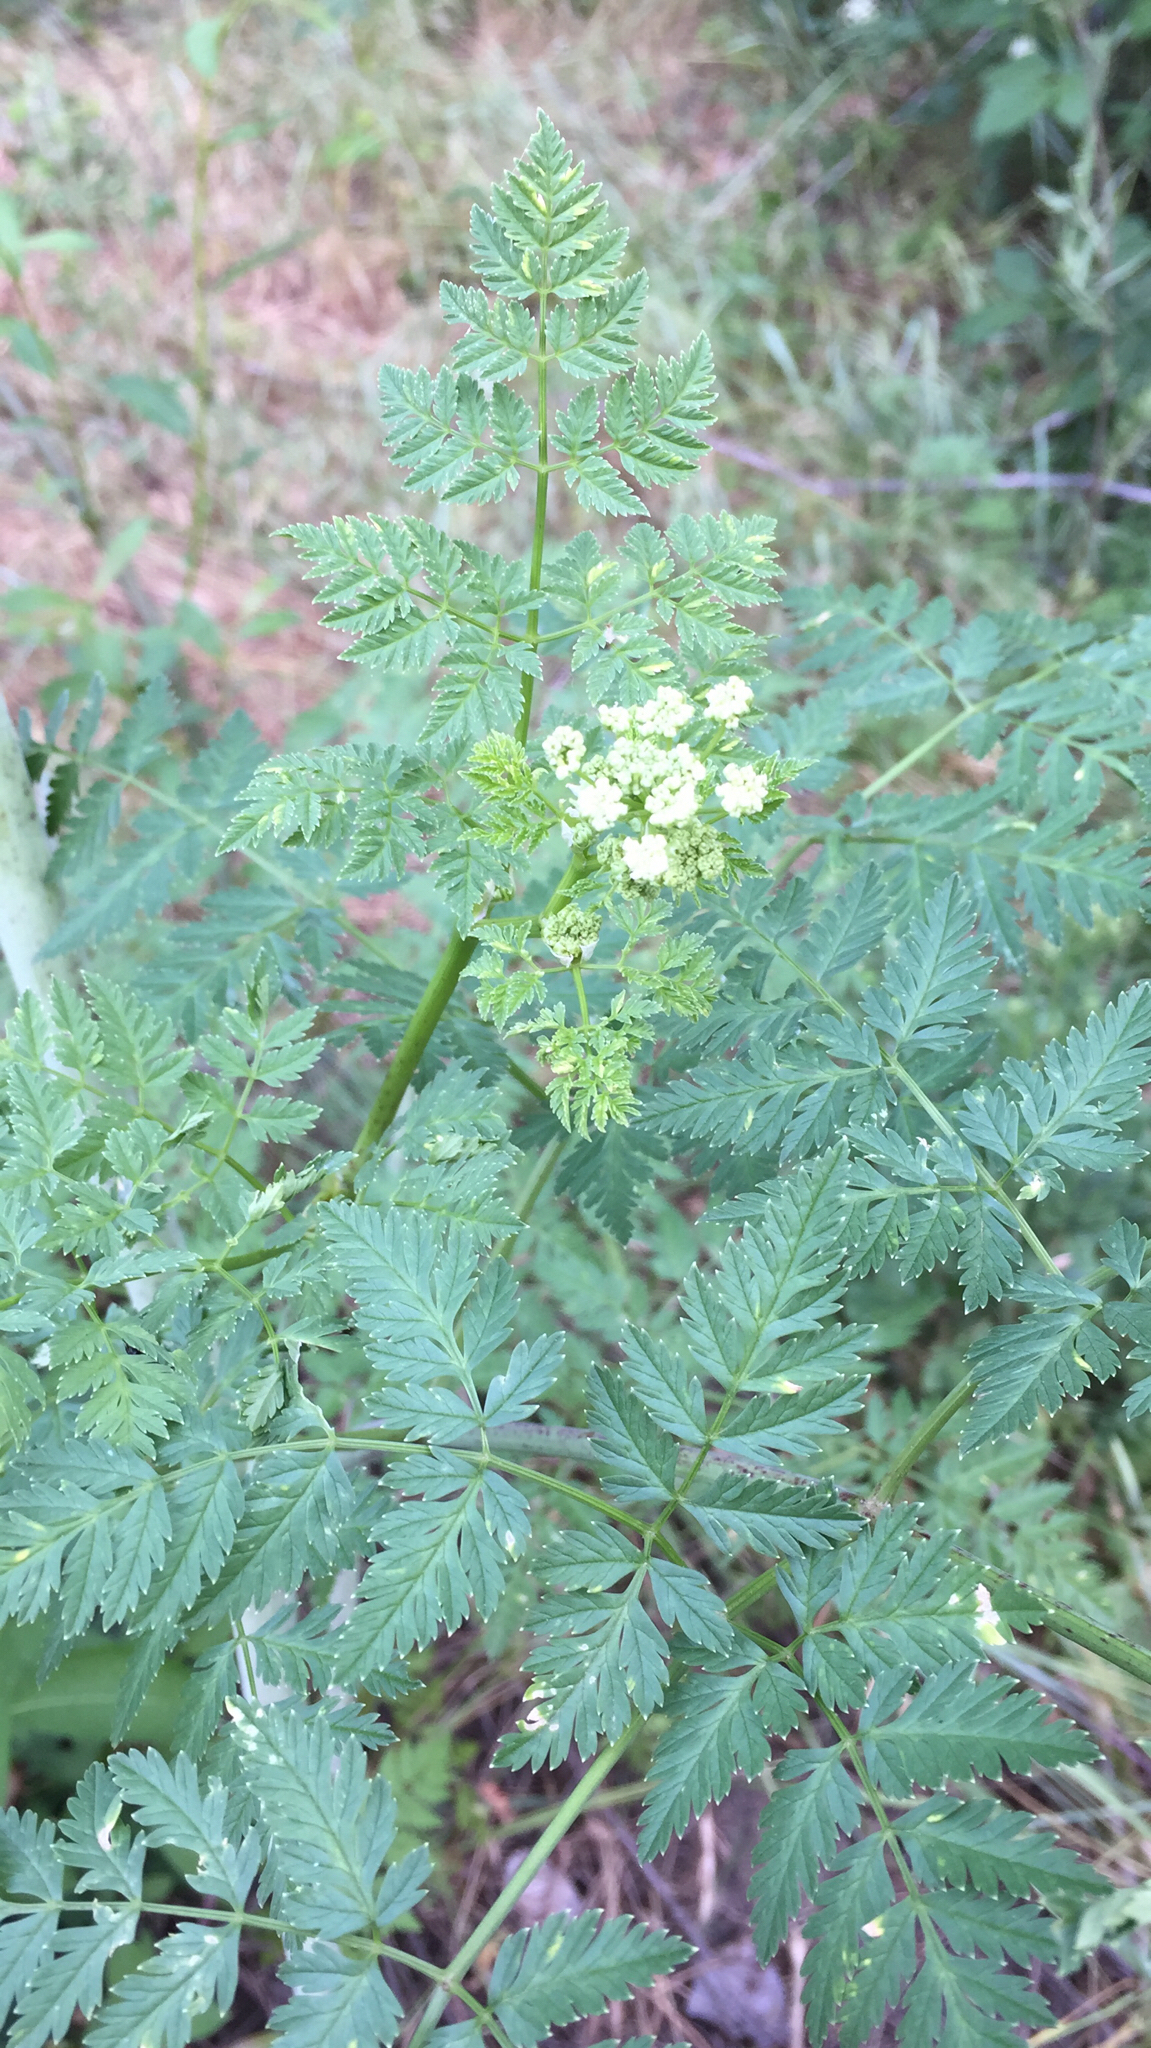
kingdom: Plantae
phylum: Tracheophyta
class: Magnoliopsida
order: Apiales
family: Apiaceae
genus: Conium
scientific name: Conium maculatum
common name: Hemlock
